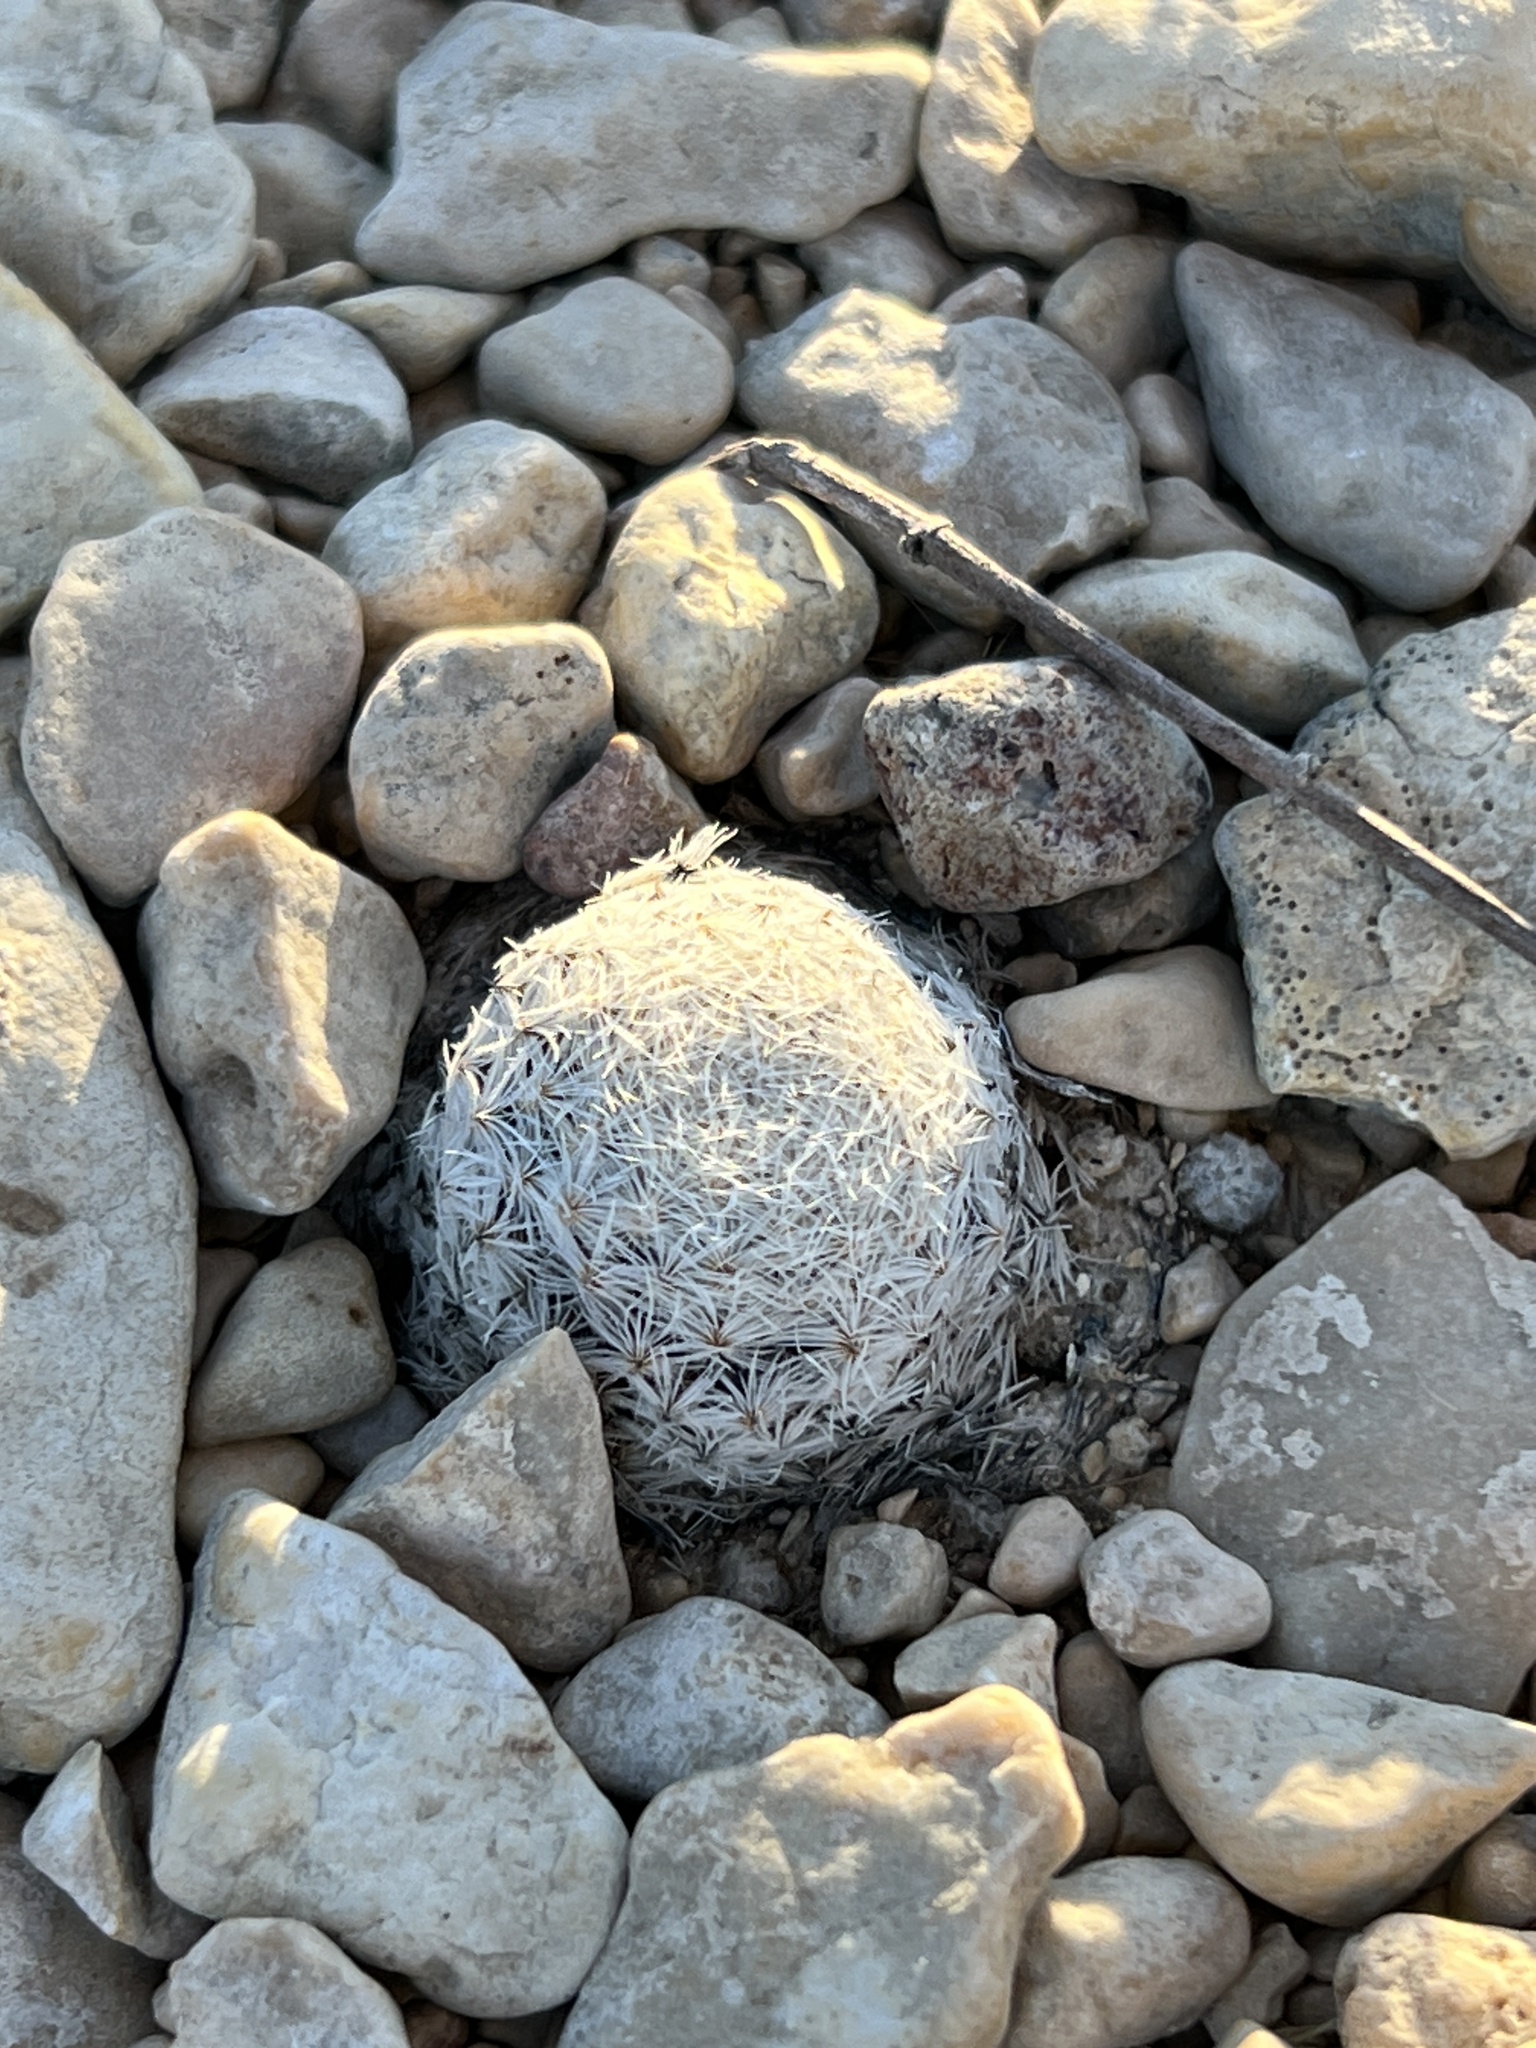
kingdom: Plantae
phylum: Tracheophyta
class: Magnoliopsida
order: Caryophyllales
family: Cactaceae
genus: Mammillaria
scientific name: Mammillaria lasiacantha
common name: Lace-spine nipple cactus
